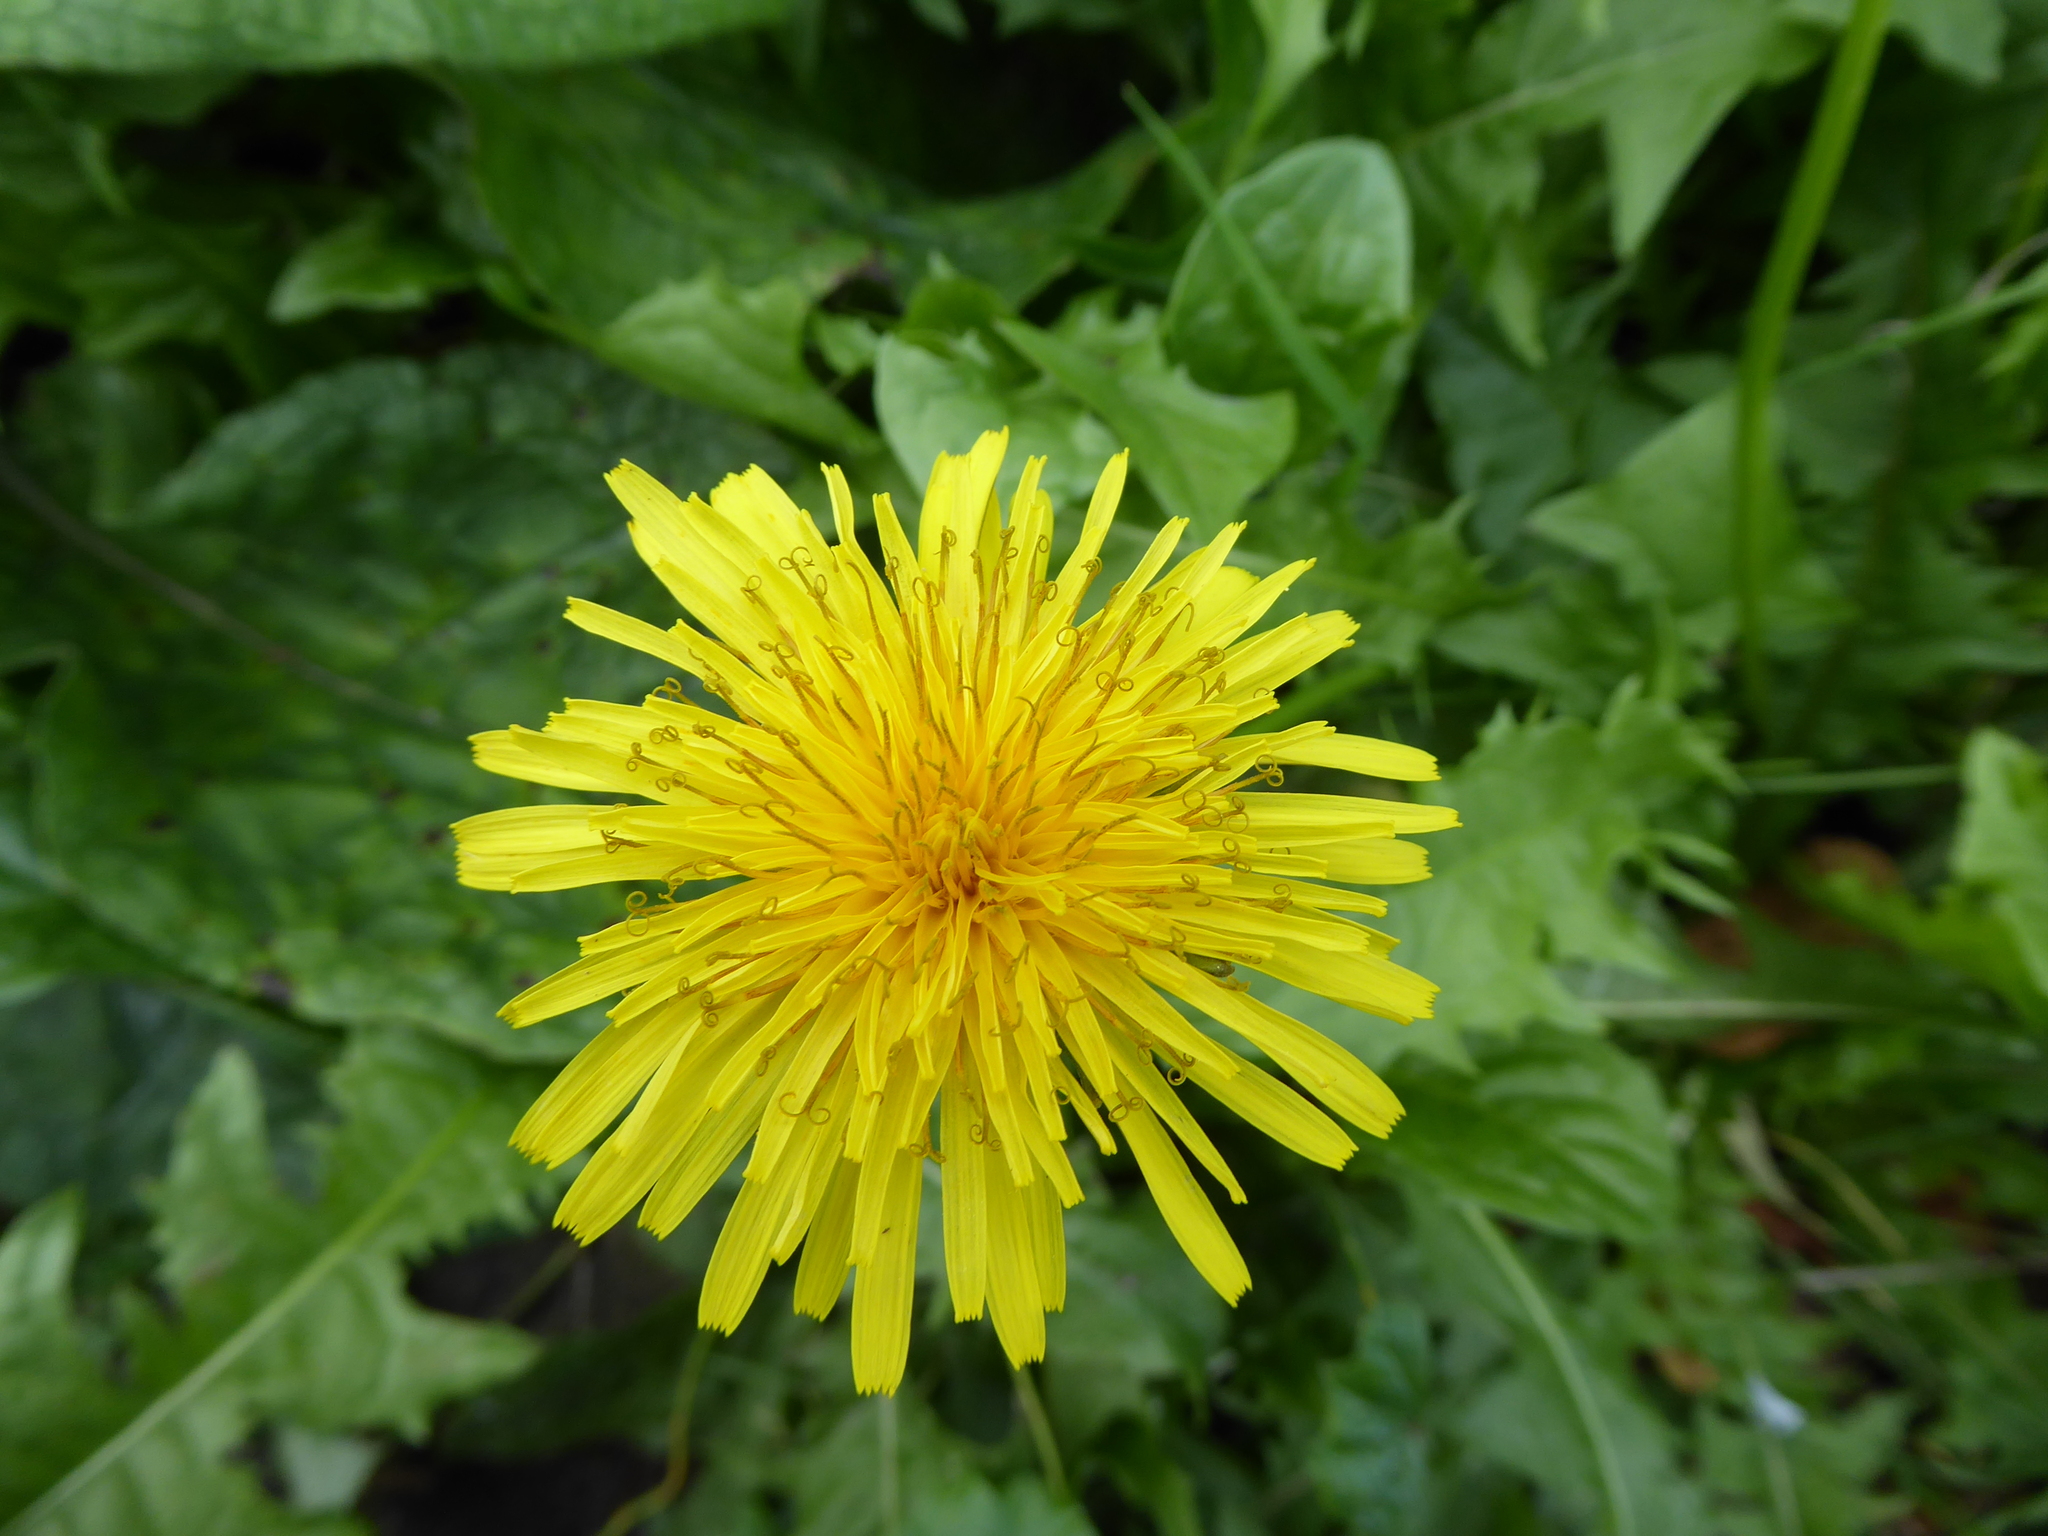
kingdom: Plantae
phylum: Tracheophyta
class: Magnoliopsida
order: Asterales
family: Asteraceae
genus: Taraxacum
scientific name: Taraxacum
